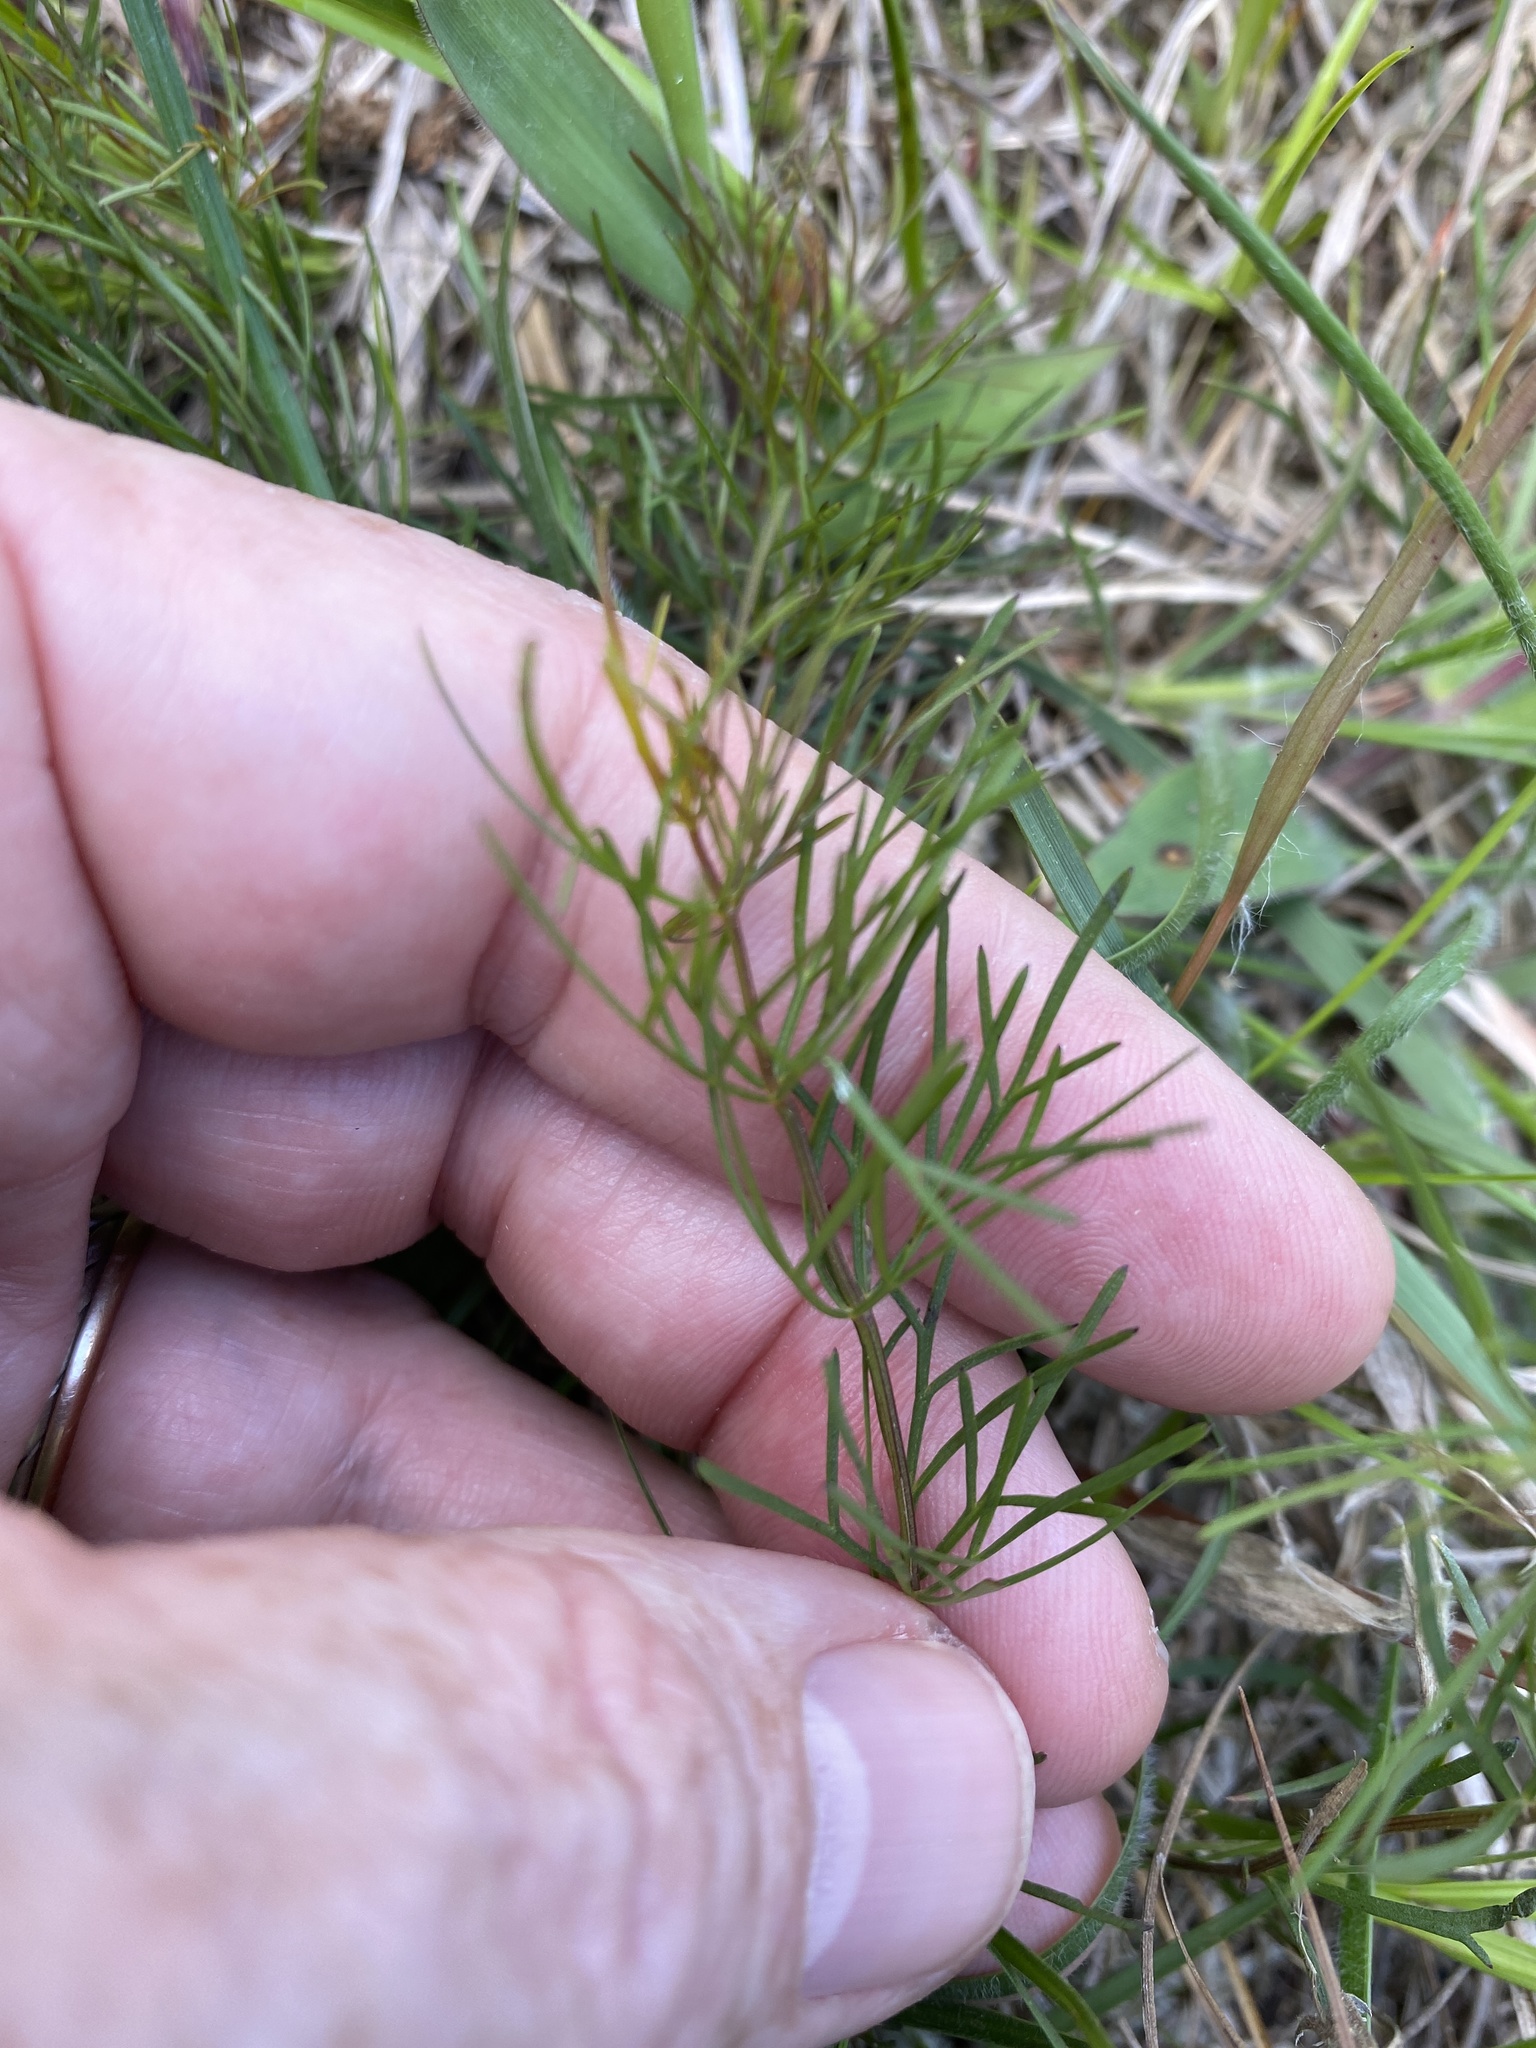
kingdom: Plantae
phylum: Tracheophyta
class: Magnoliopsida
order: Asterales
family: Asteraceae
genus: Coreopsis
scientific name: Coreopsis verticillata
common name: Whorled tickseed
